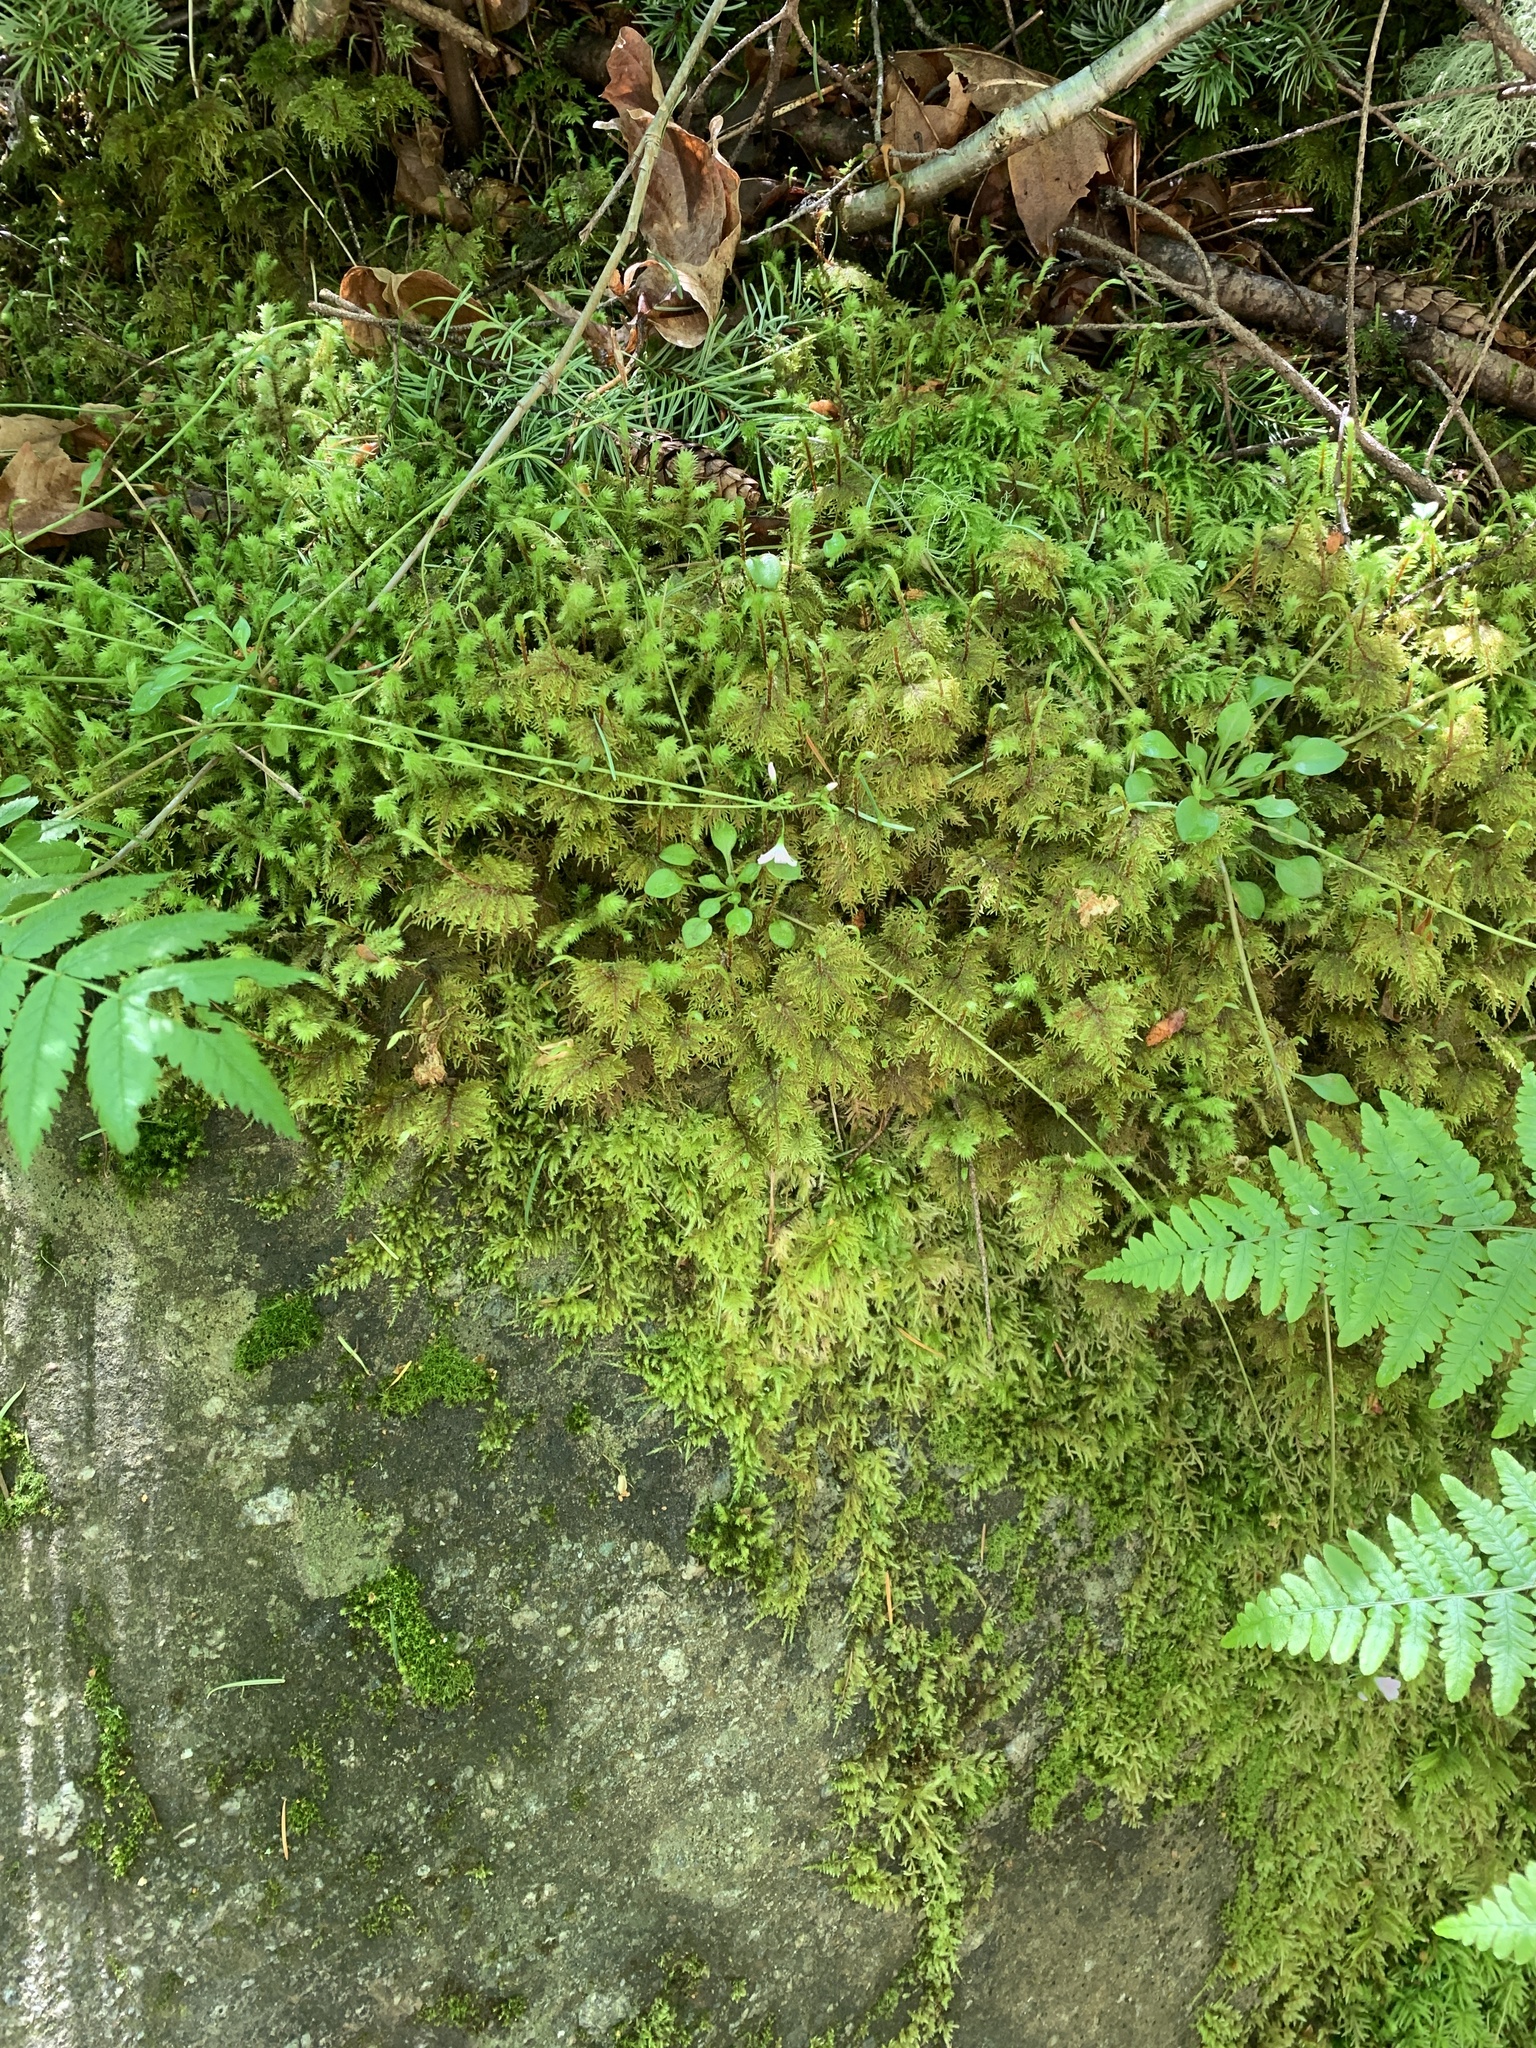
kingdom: Plantae
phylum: Tracheophyta
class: Magnoliopsida
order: Caryophyllales
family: Montiaceae
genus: Montia
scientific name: Montia parvifolia
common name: Small-leaved blinks
